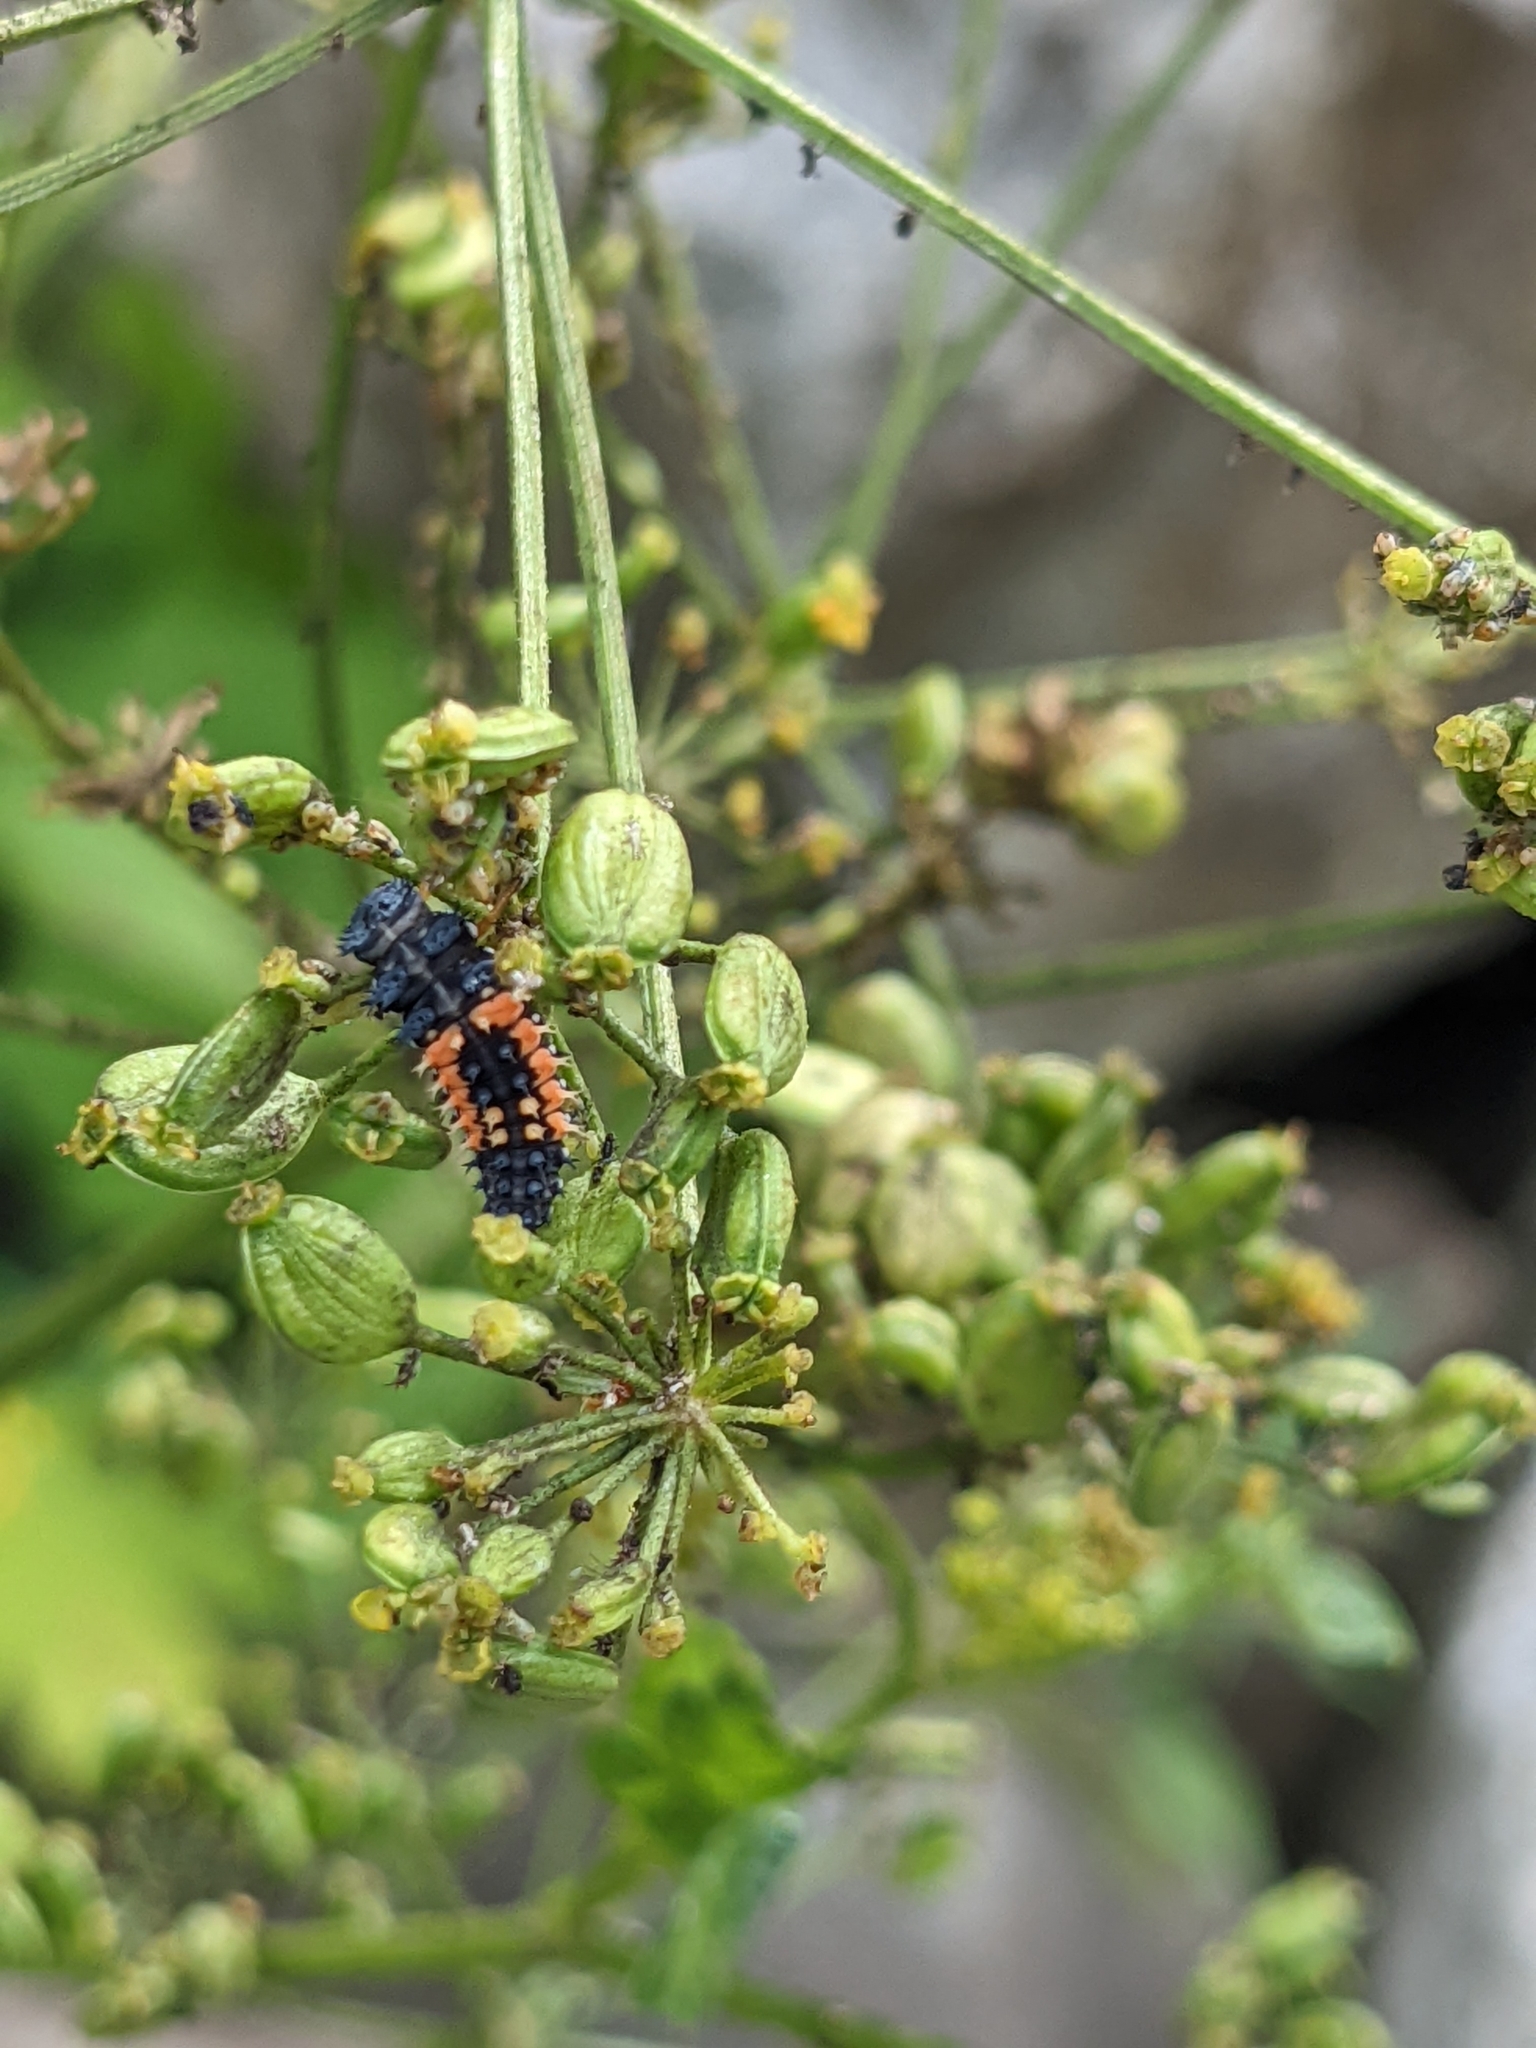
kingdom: Animalia
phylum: Arthropoda
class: Insecta
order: Coleoptera
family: Coccinellidae
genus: Harmonia
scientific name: Harmonia axyridis
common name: Harlequin ladybird
